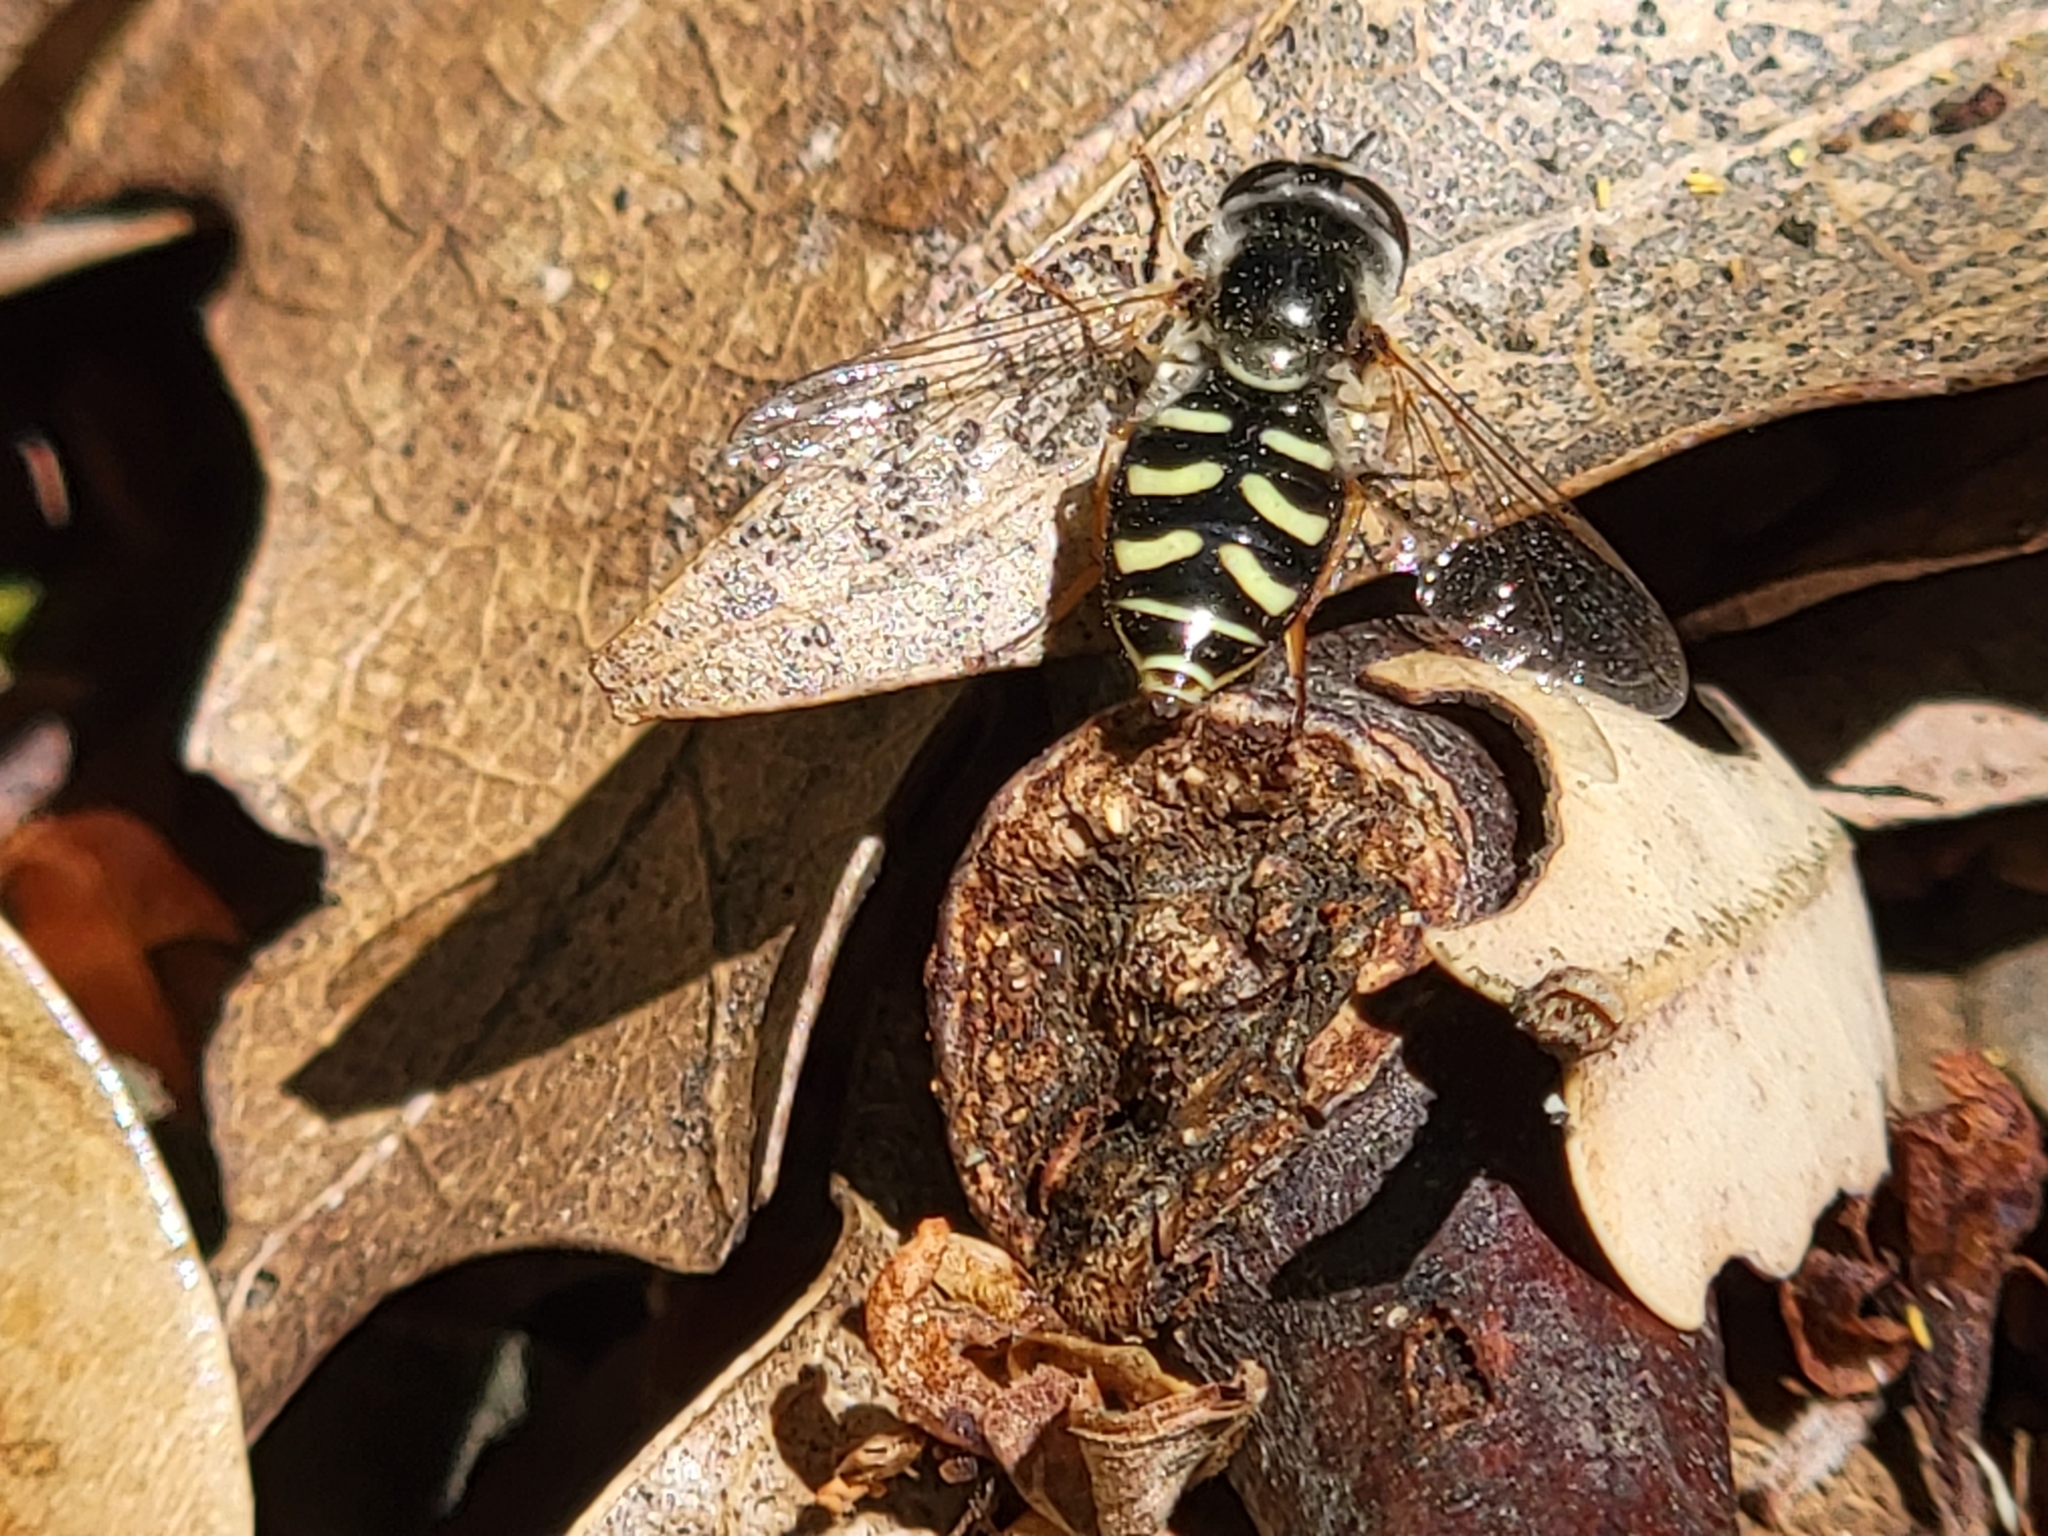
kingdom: Animalia
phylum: Arthropoda
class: Insecta
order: Diptera
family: Syrphidae
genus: Eupeodes
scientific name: Eupeodes volucris
